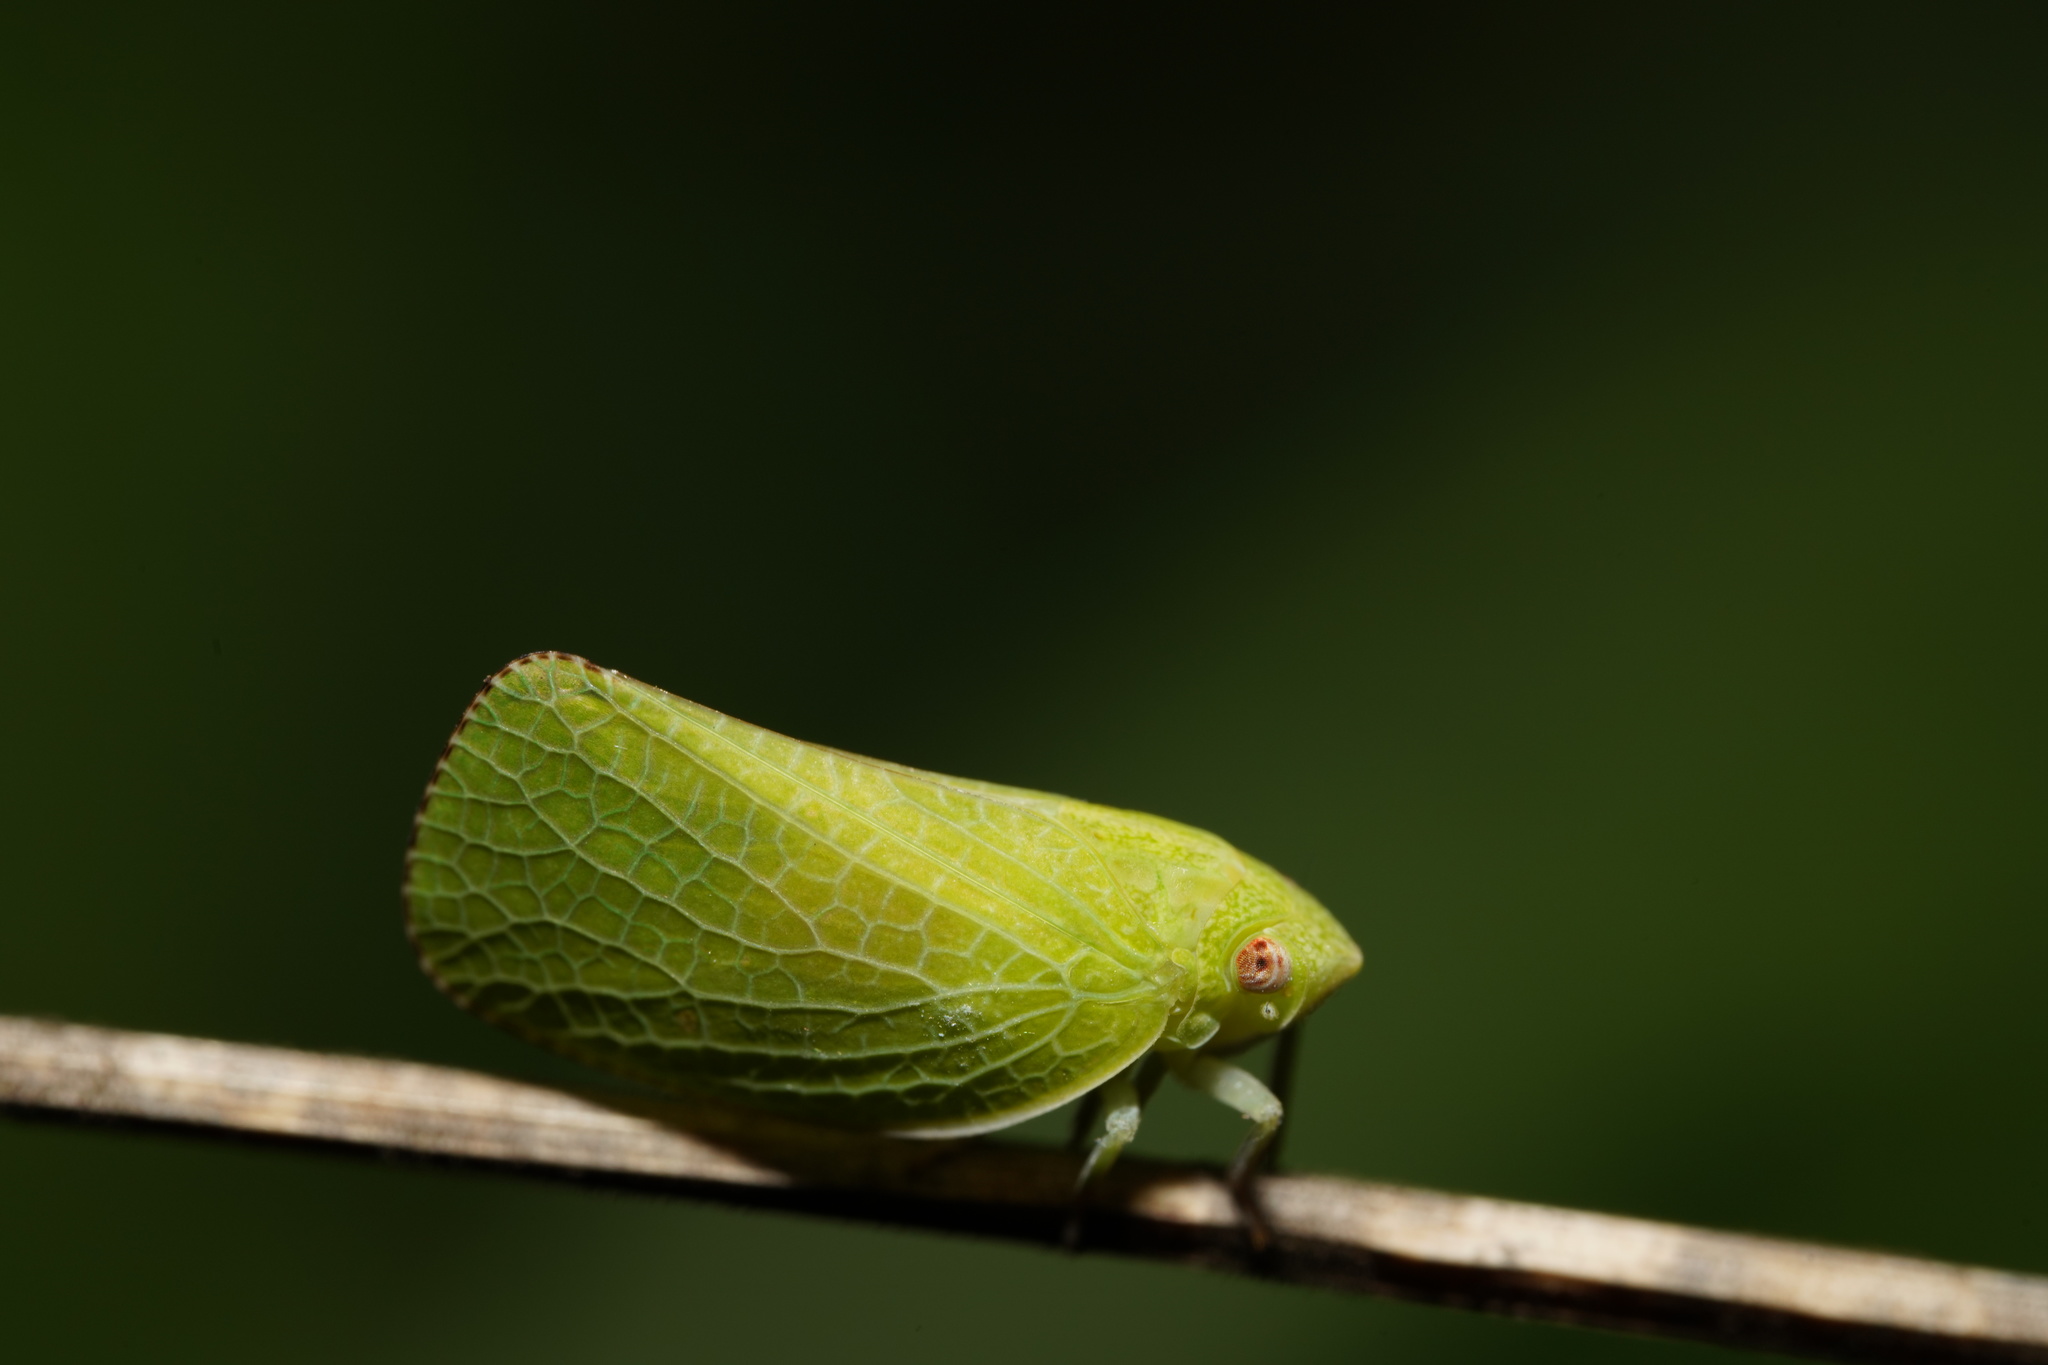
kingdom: Animalia
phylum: Arthropoda
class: Insecta
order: Hemiptera
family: Acanaloniidae
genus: Acanalonia
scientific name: Acanalonia conica
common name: Green cone-headed planthopper
